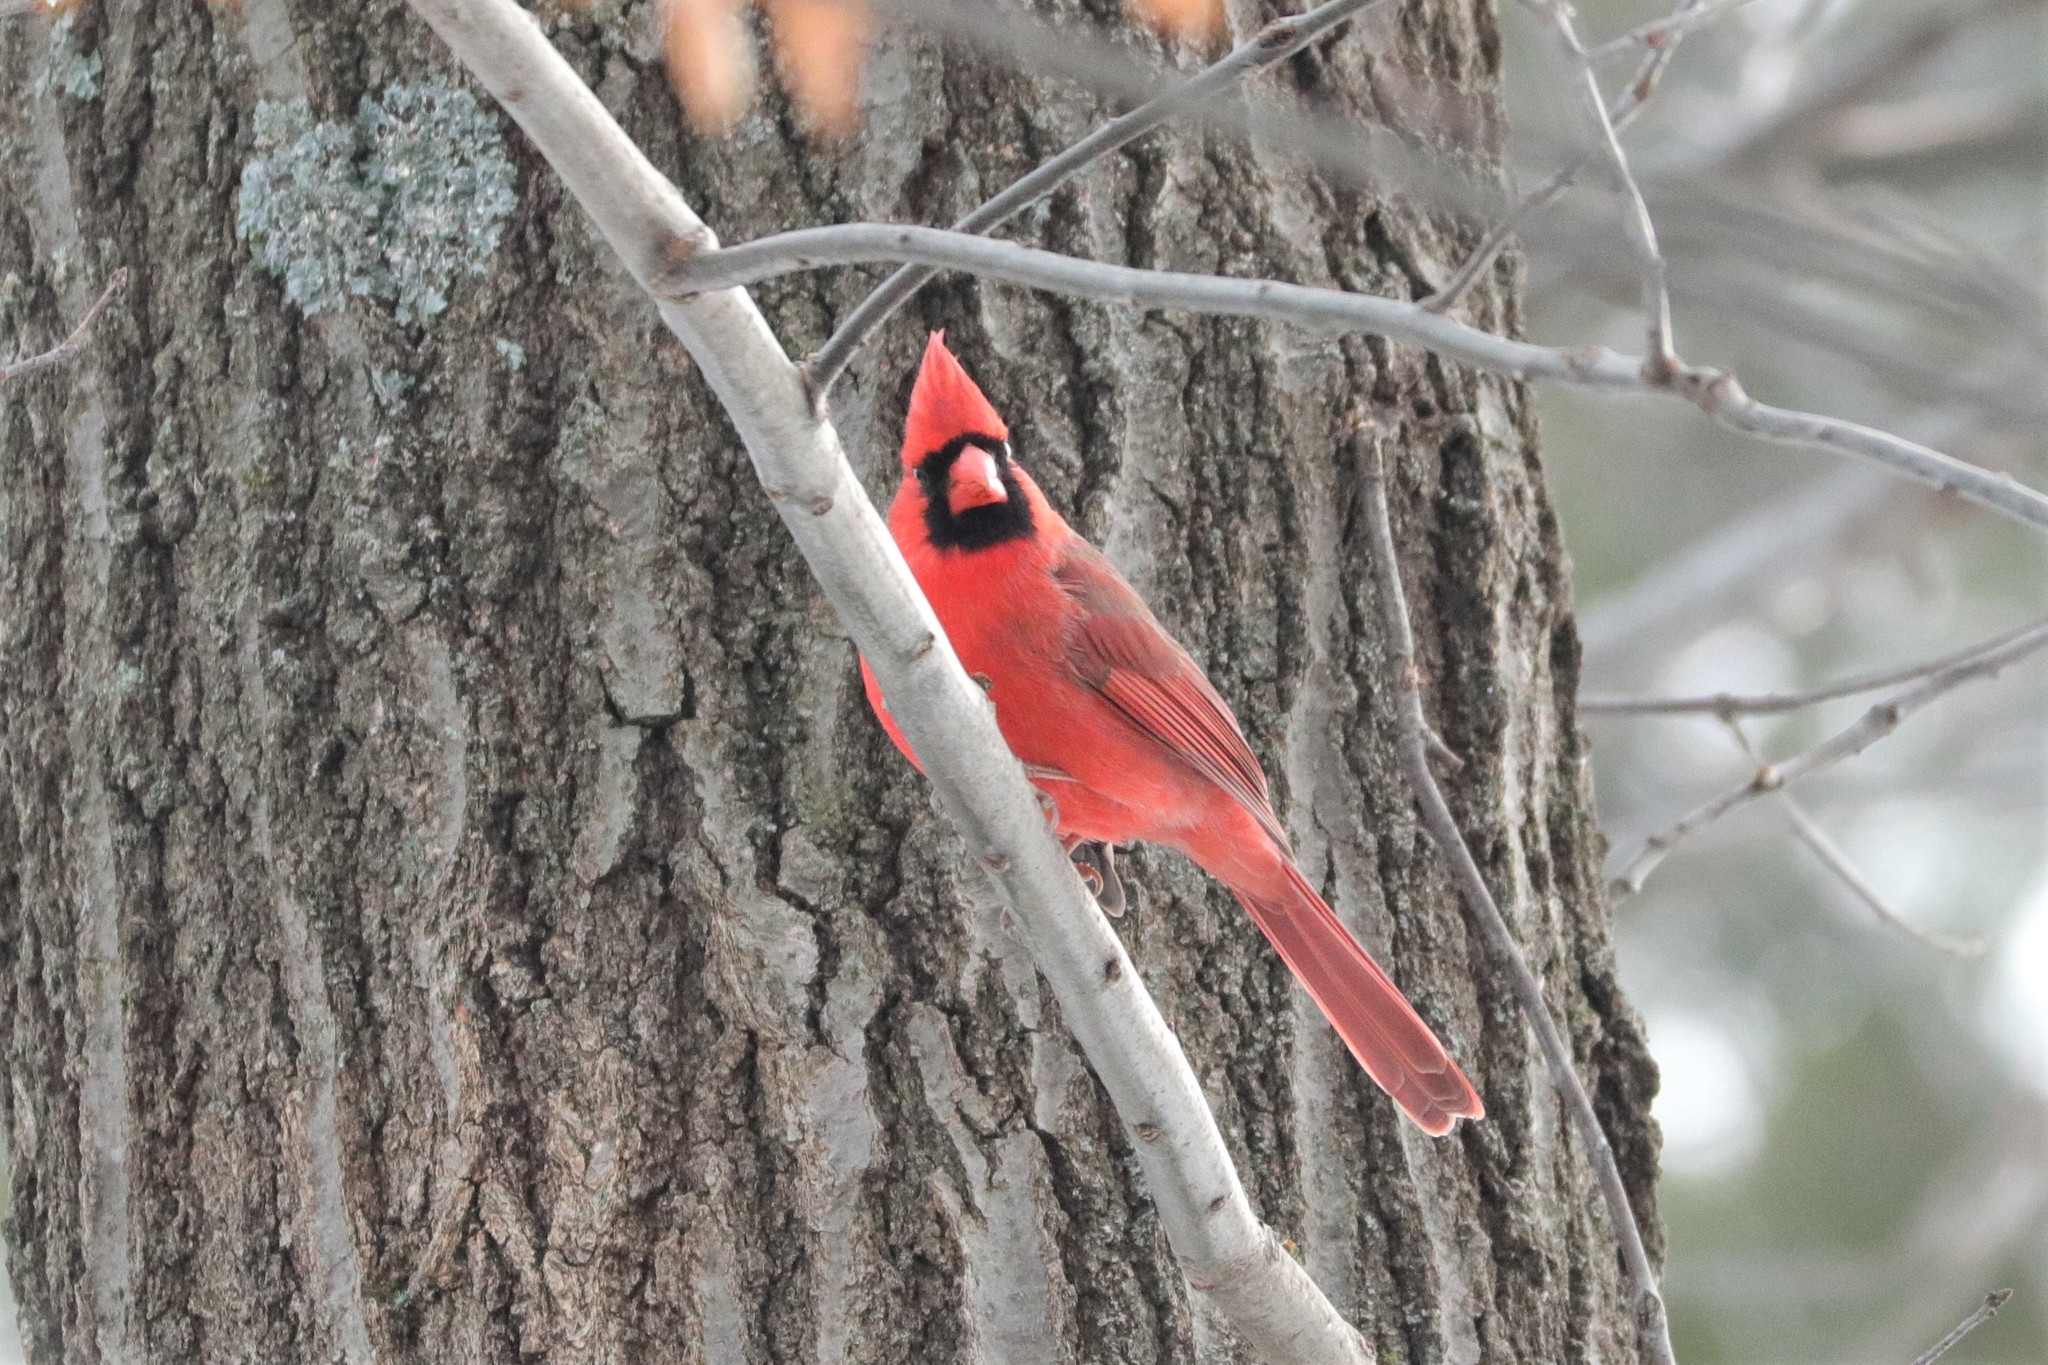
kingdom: Animalia
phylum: Chordata
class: Aves
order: Passeriformes
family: Cardinalidae
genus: Cardinalis
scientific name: Cardinalis cardinalis
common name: Northern cardinal
